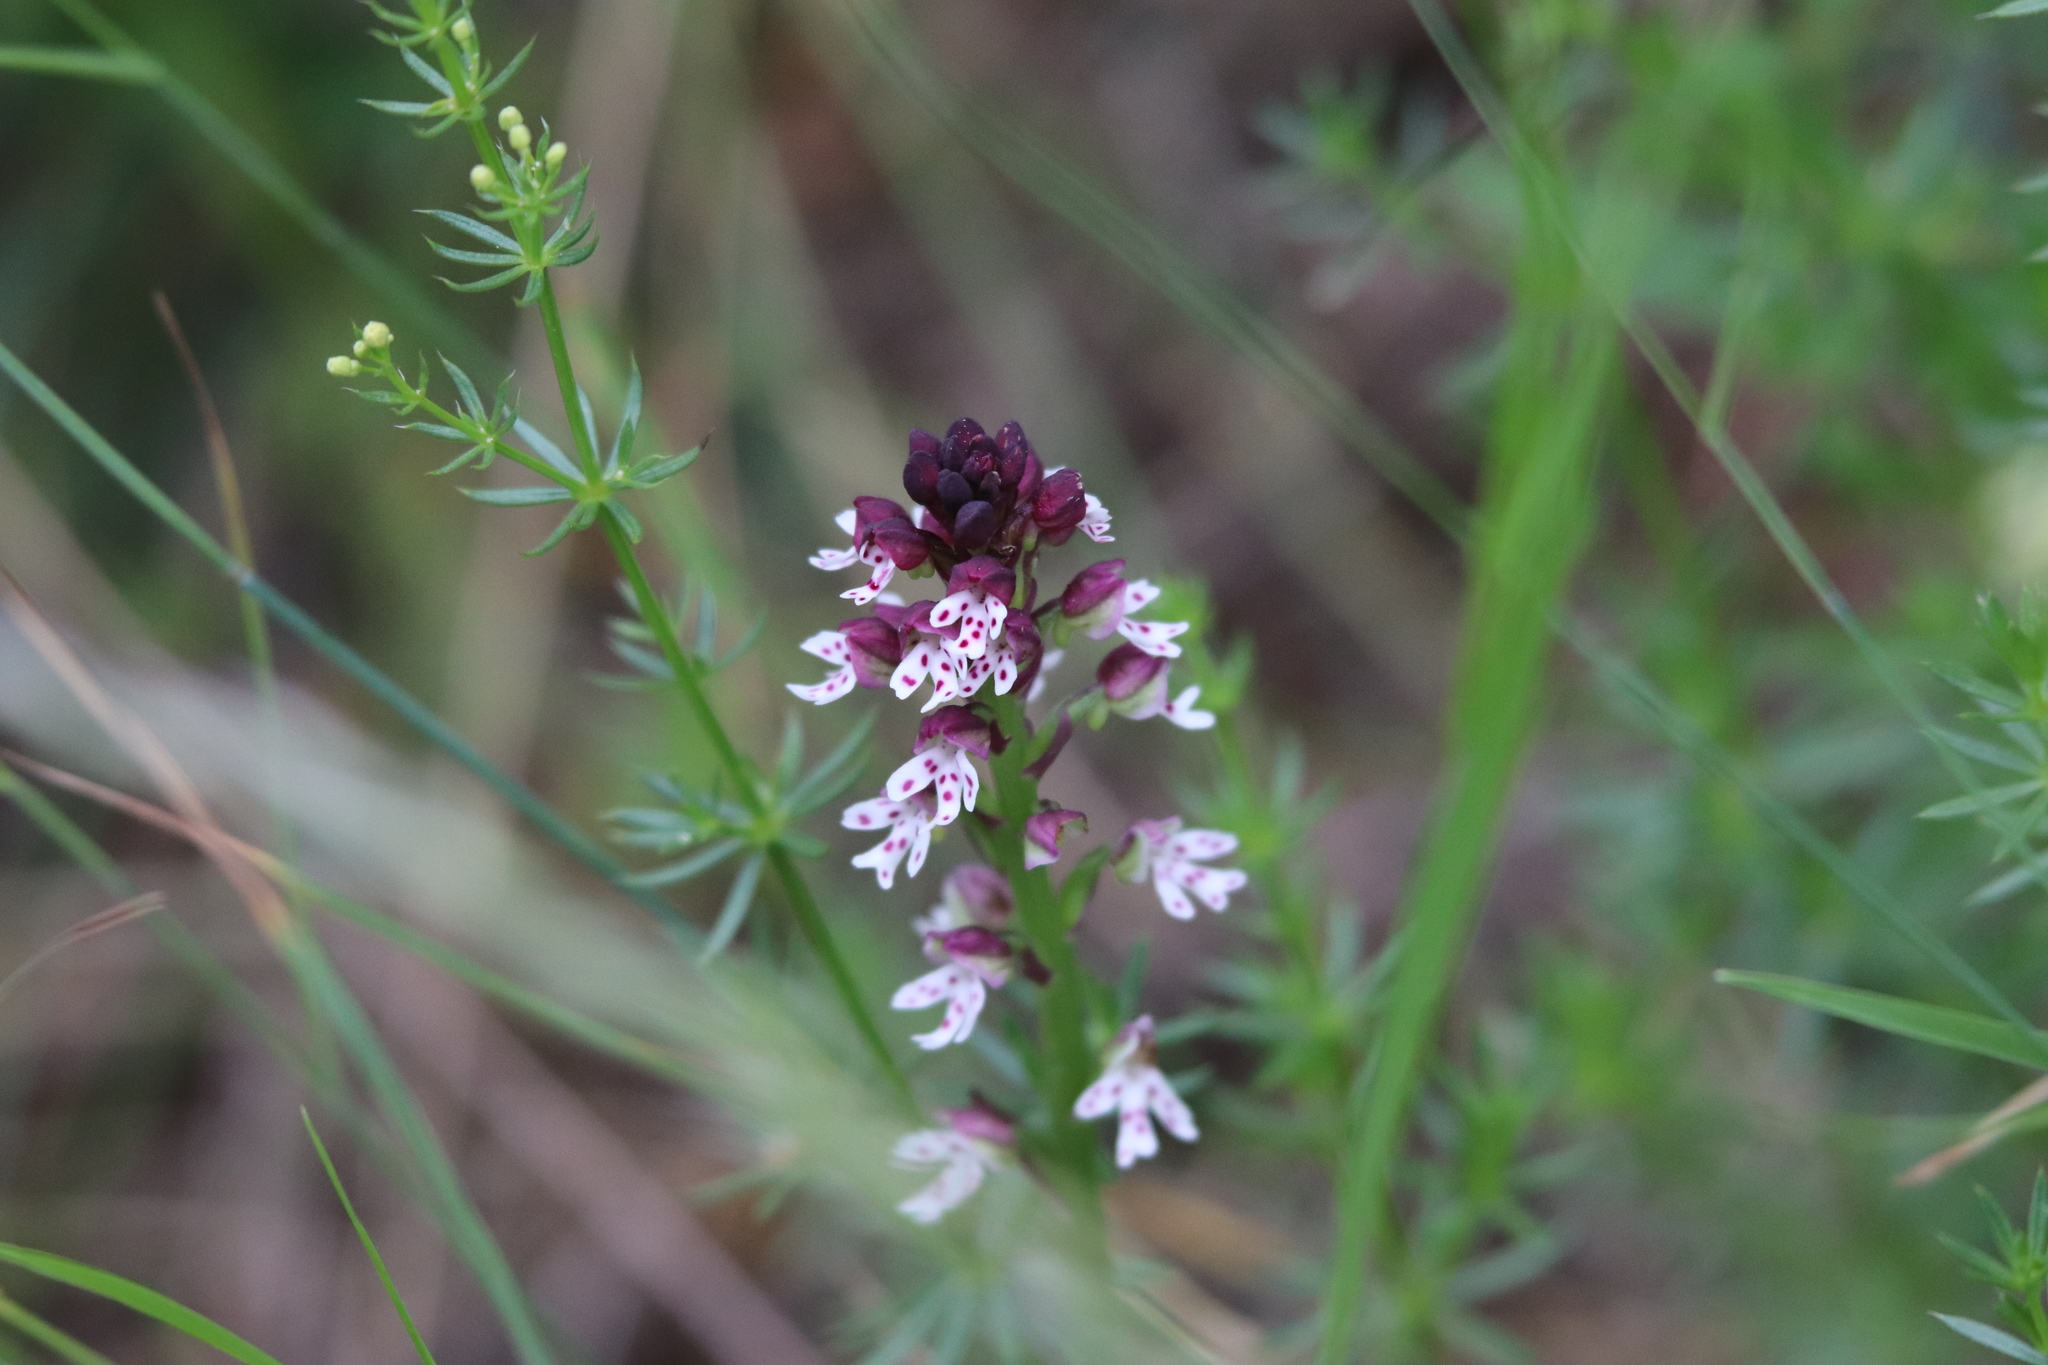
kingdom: Plantae
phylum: Tracheophyta
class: Liliopsida
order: Asparagales
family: Orchidaceae
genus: Neotinea
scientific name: Neotinea ustulata
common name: Burnt orchid
